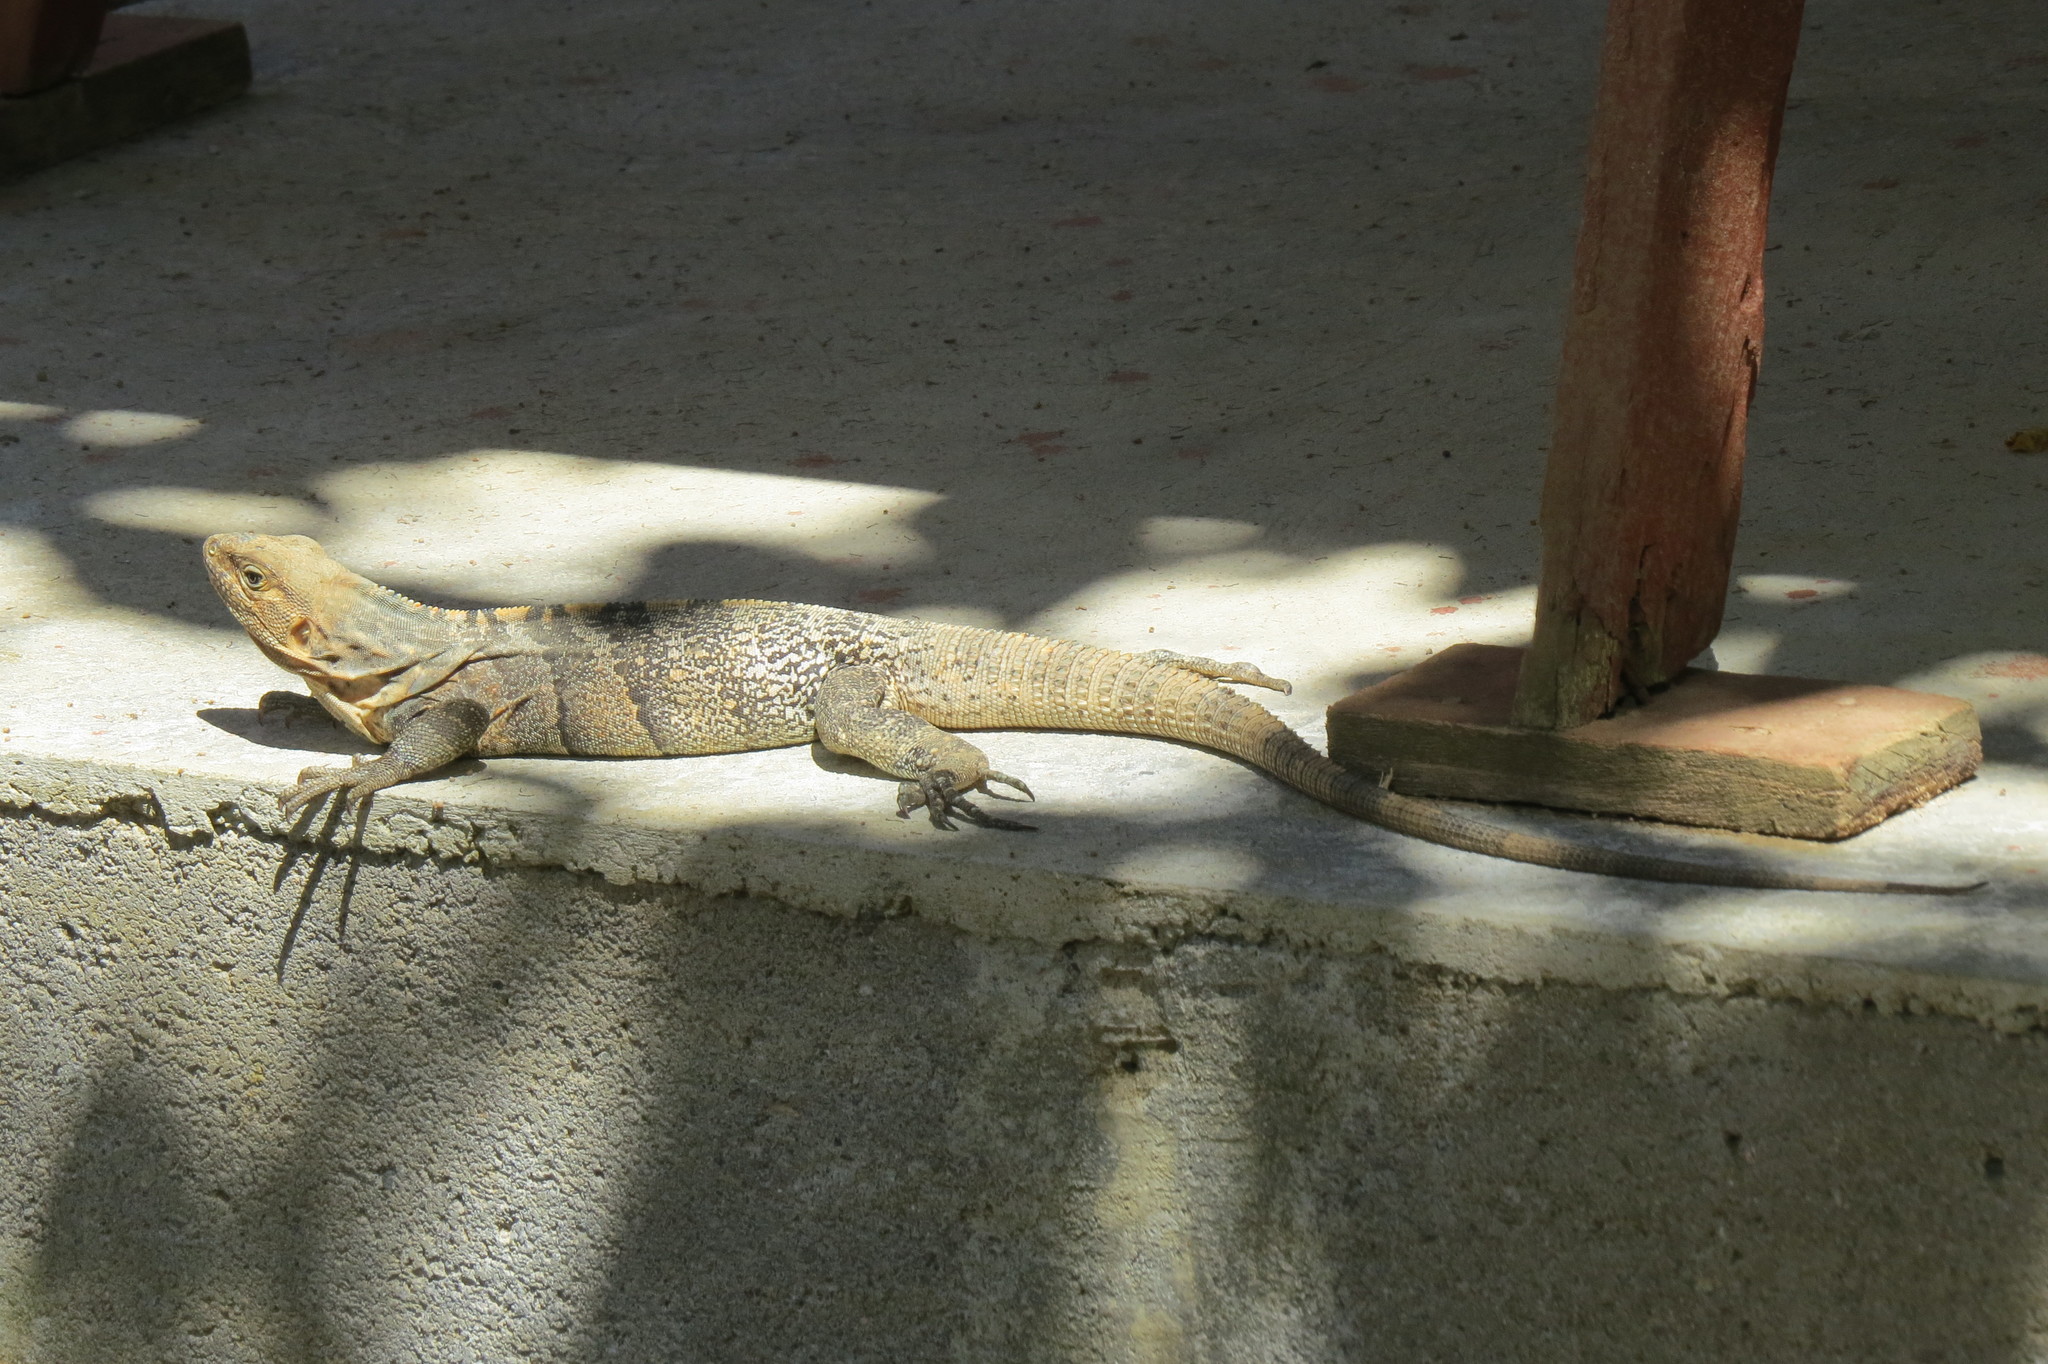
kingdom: Animalia
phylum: Chordata
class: Squamata
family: Iguanidae
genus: Ctenosaura
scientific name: Ctenosaura similis
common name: Black spiny-tailed iguana
